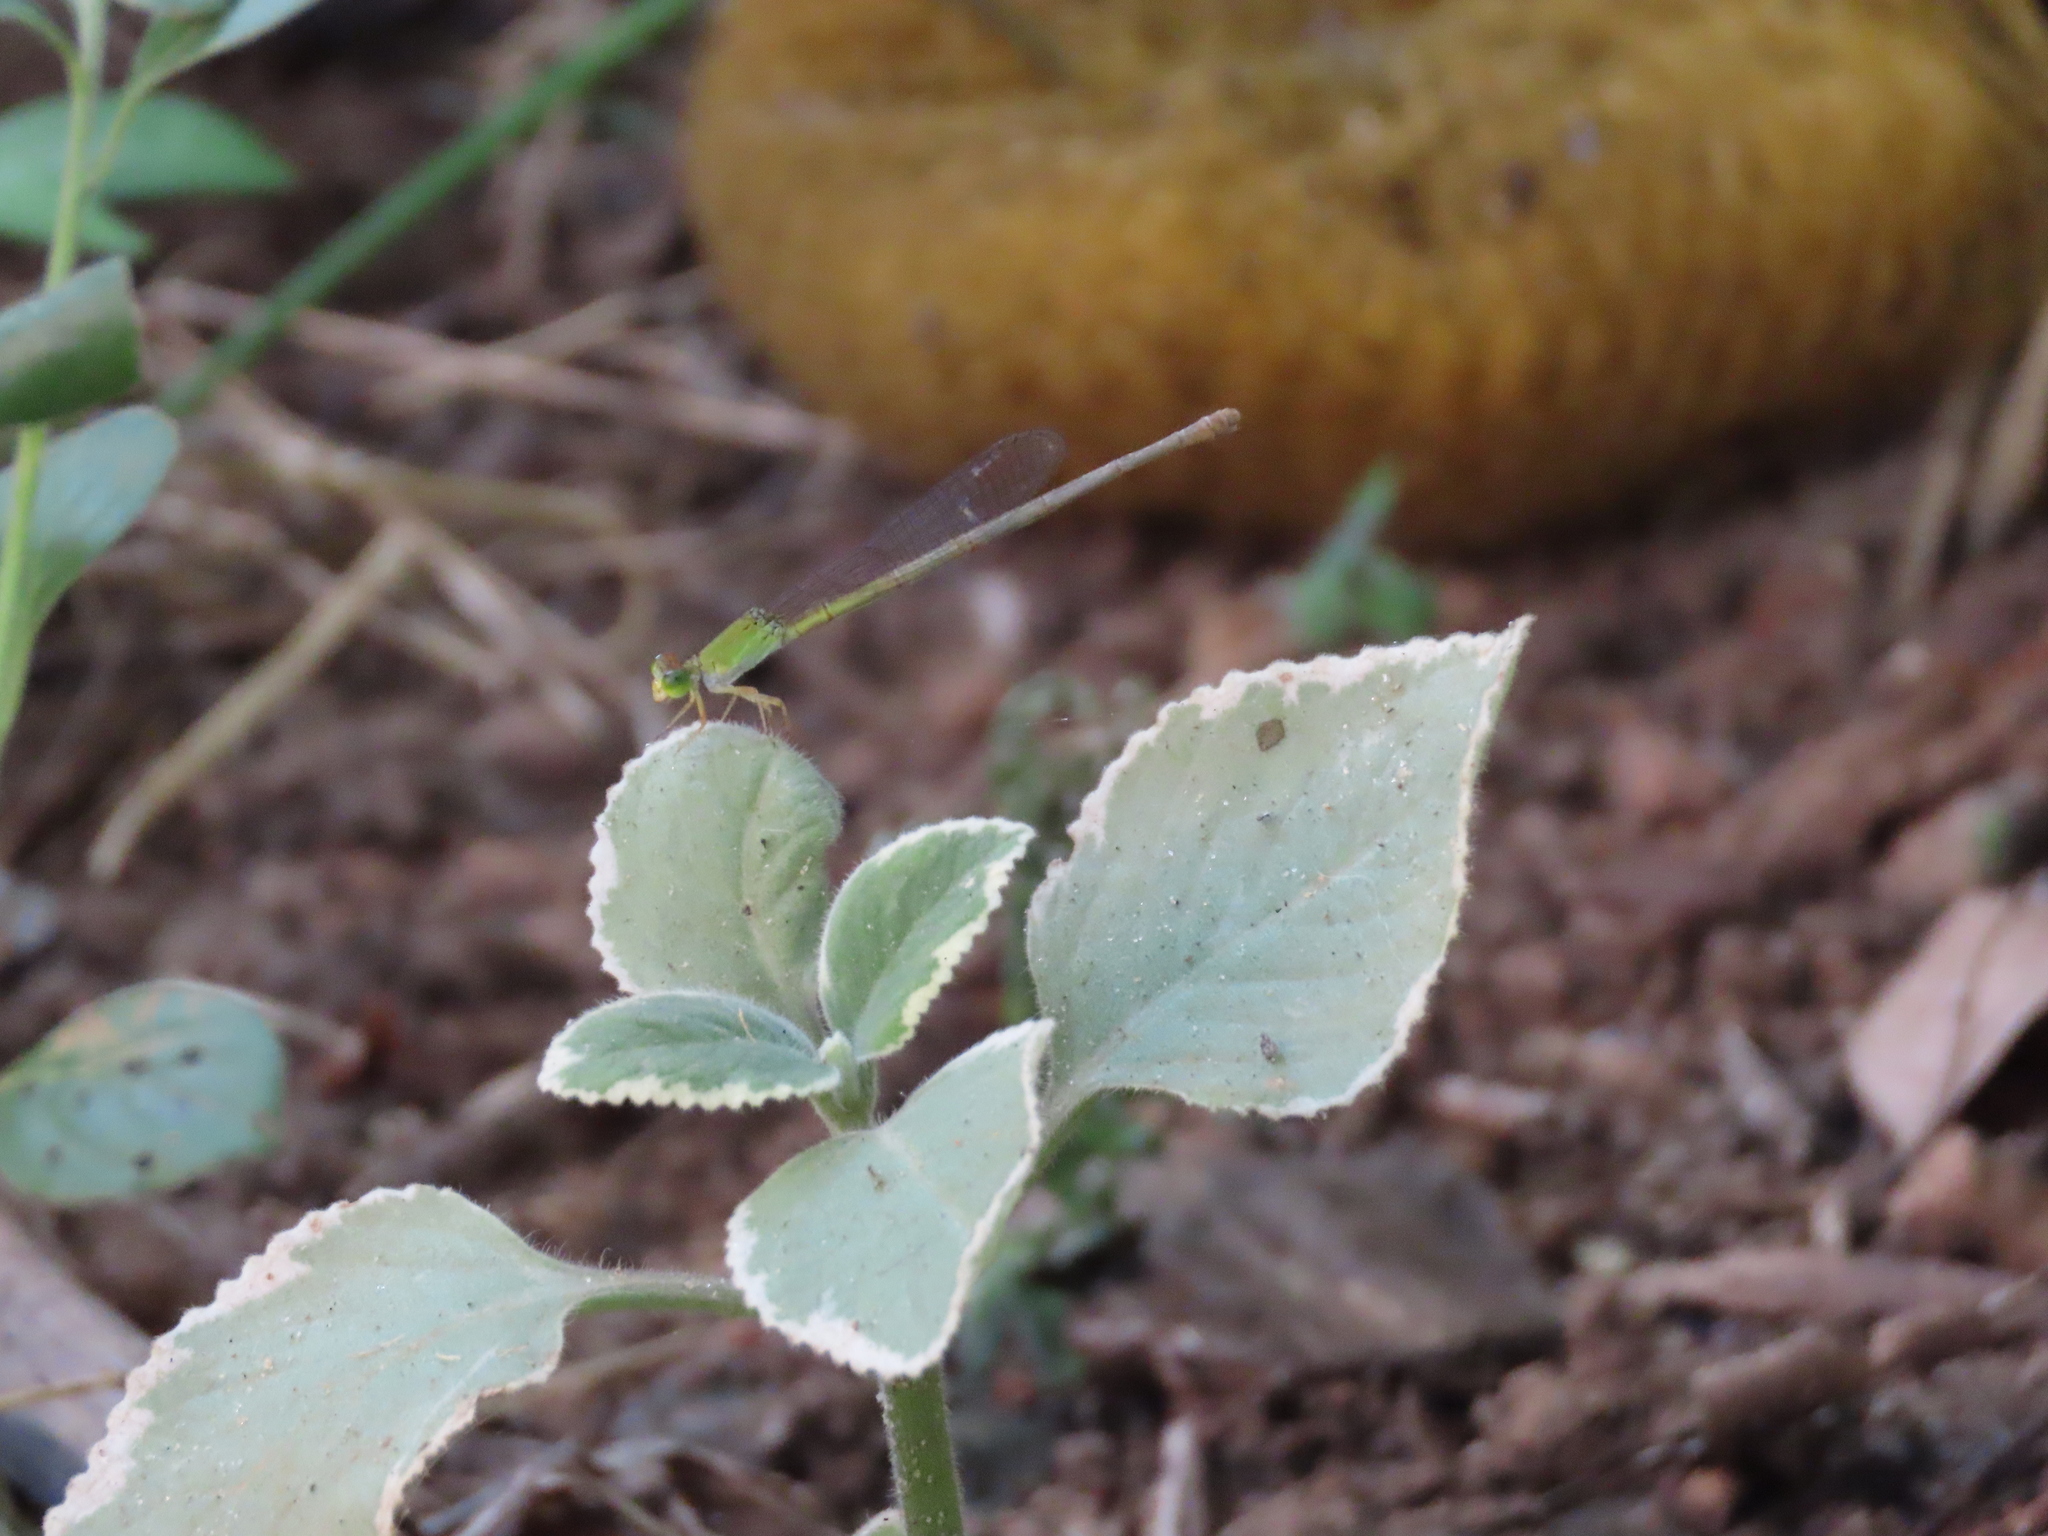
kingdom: Animalia
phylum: Arthropoda
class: Insecta
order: Odonata
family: Coenagrionidae
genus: Ceriagrion
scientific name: Ceriagrion coromandelianum
